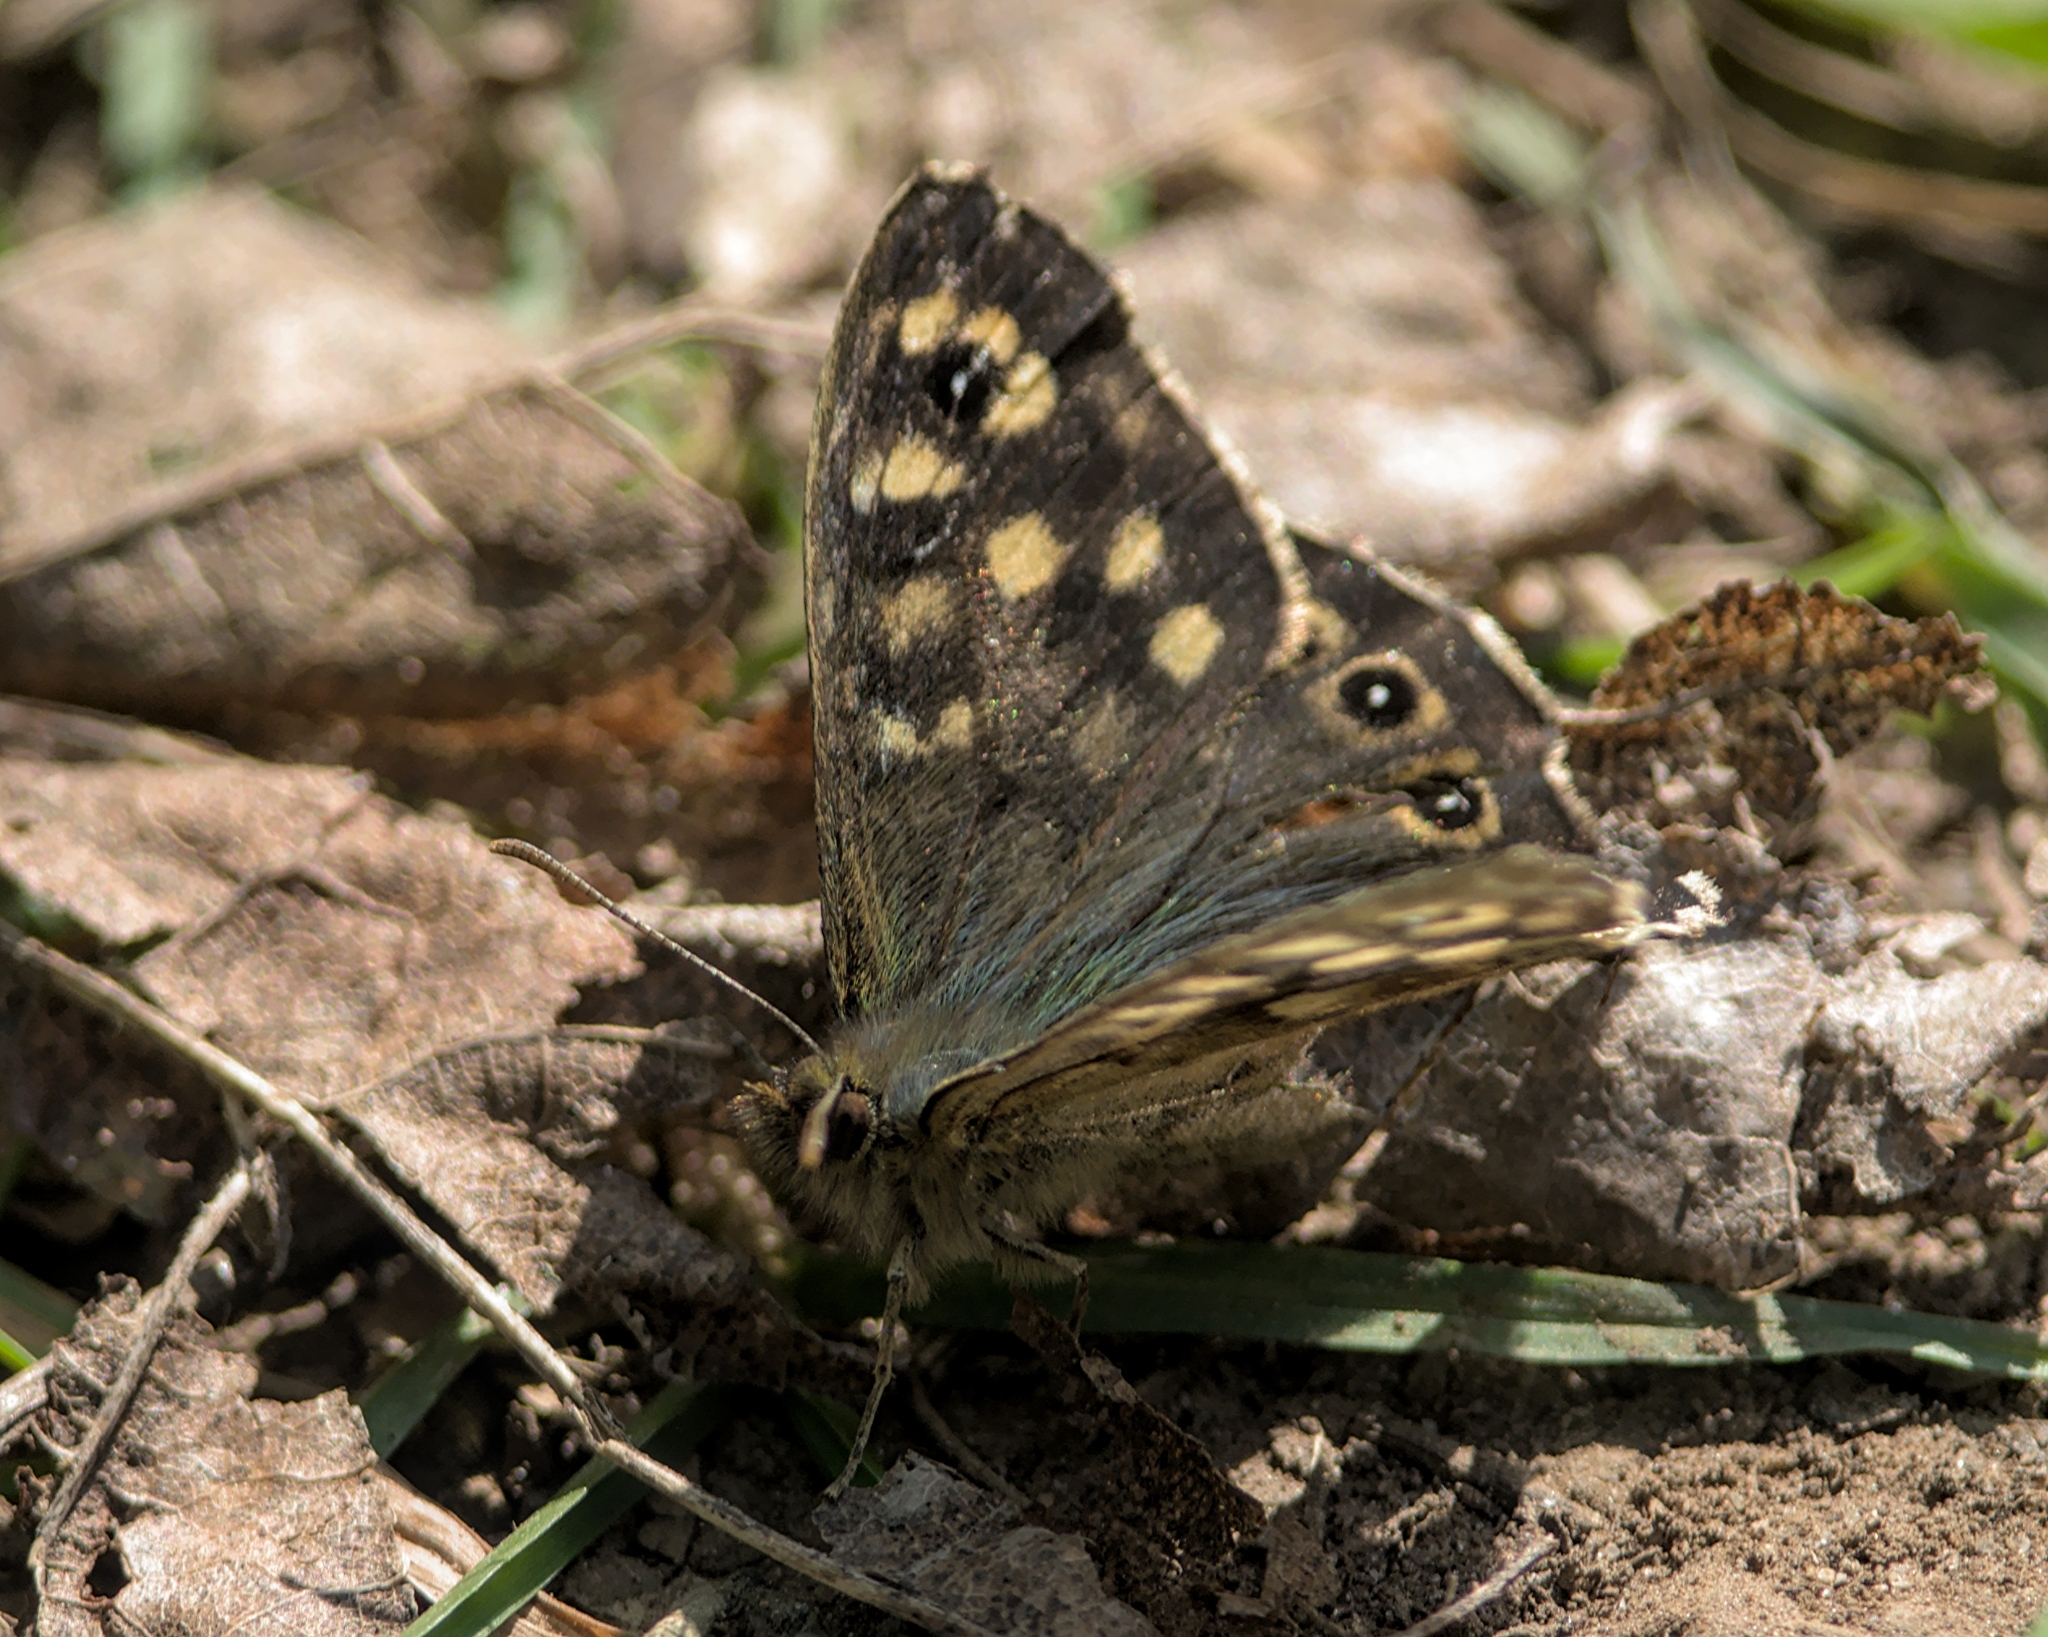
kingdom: Animalia
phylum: Arthropoda
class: Insecta
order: Lepidoptera
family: Nymphalidae
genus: Pararge
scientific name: Pararge aegeria
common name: Speckled wood
